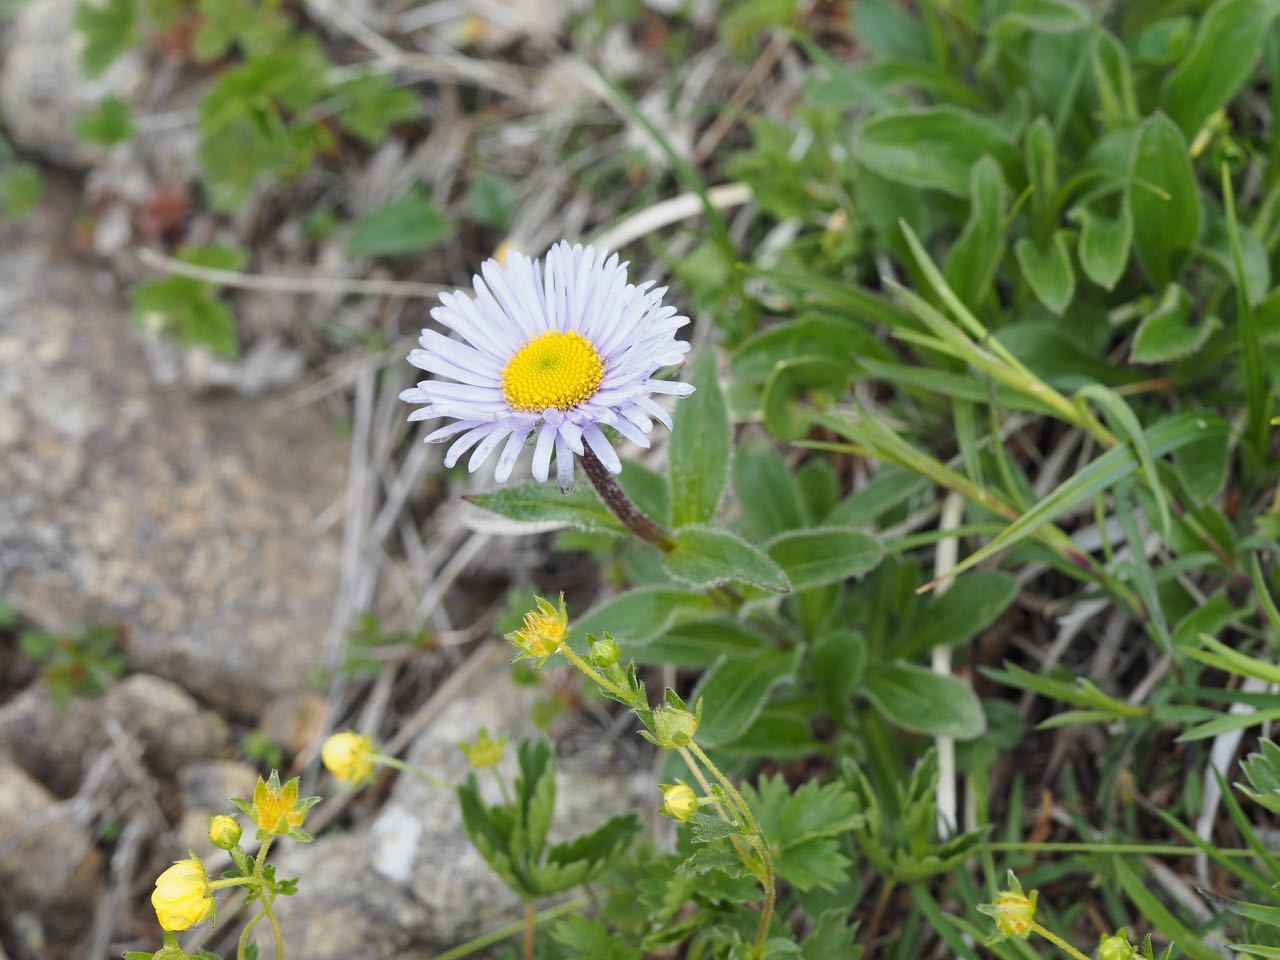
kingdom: Plantae
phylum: Tracheophyta
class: Magnoliopsida
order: Asterales
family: Asteraceae
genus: Erigeron
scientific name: Erigeron thunbergii
